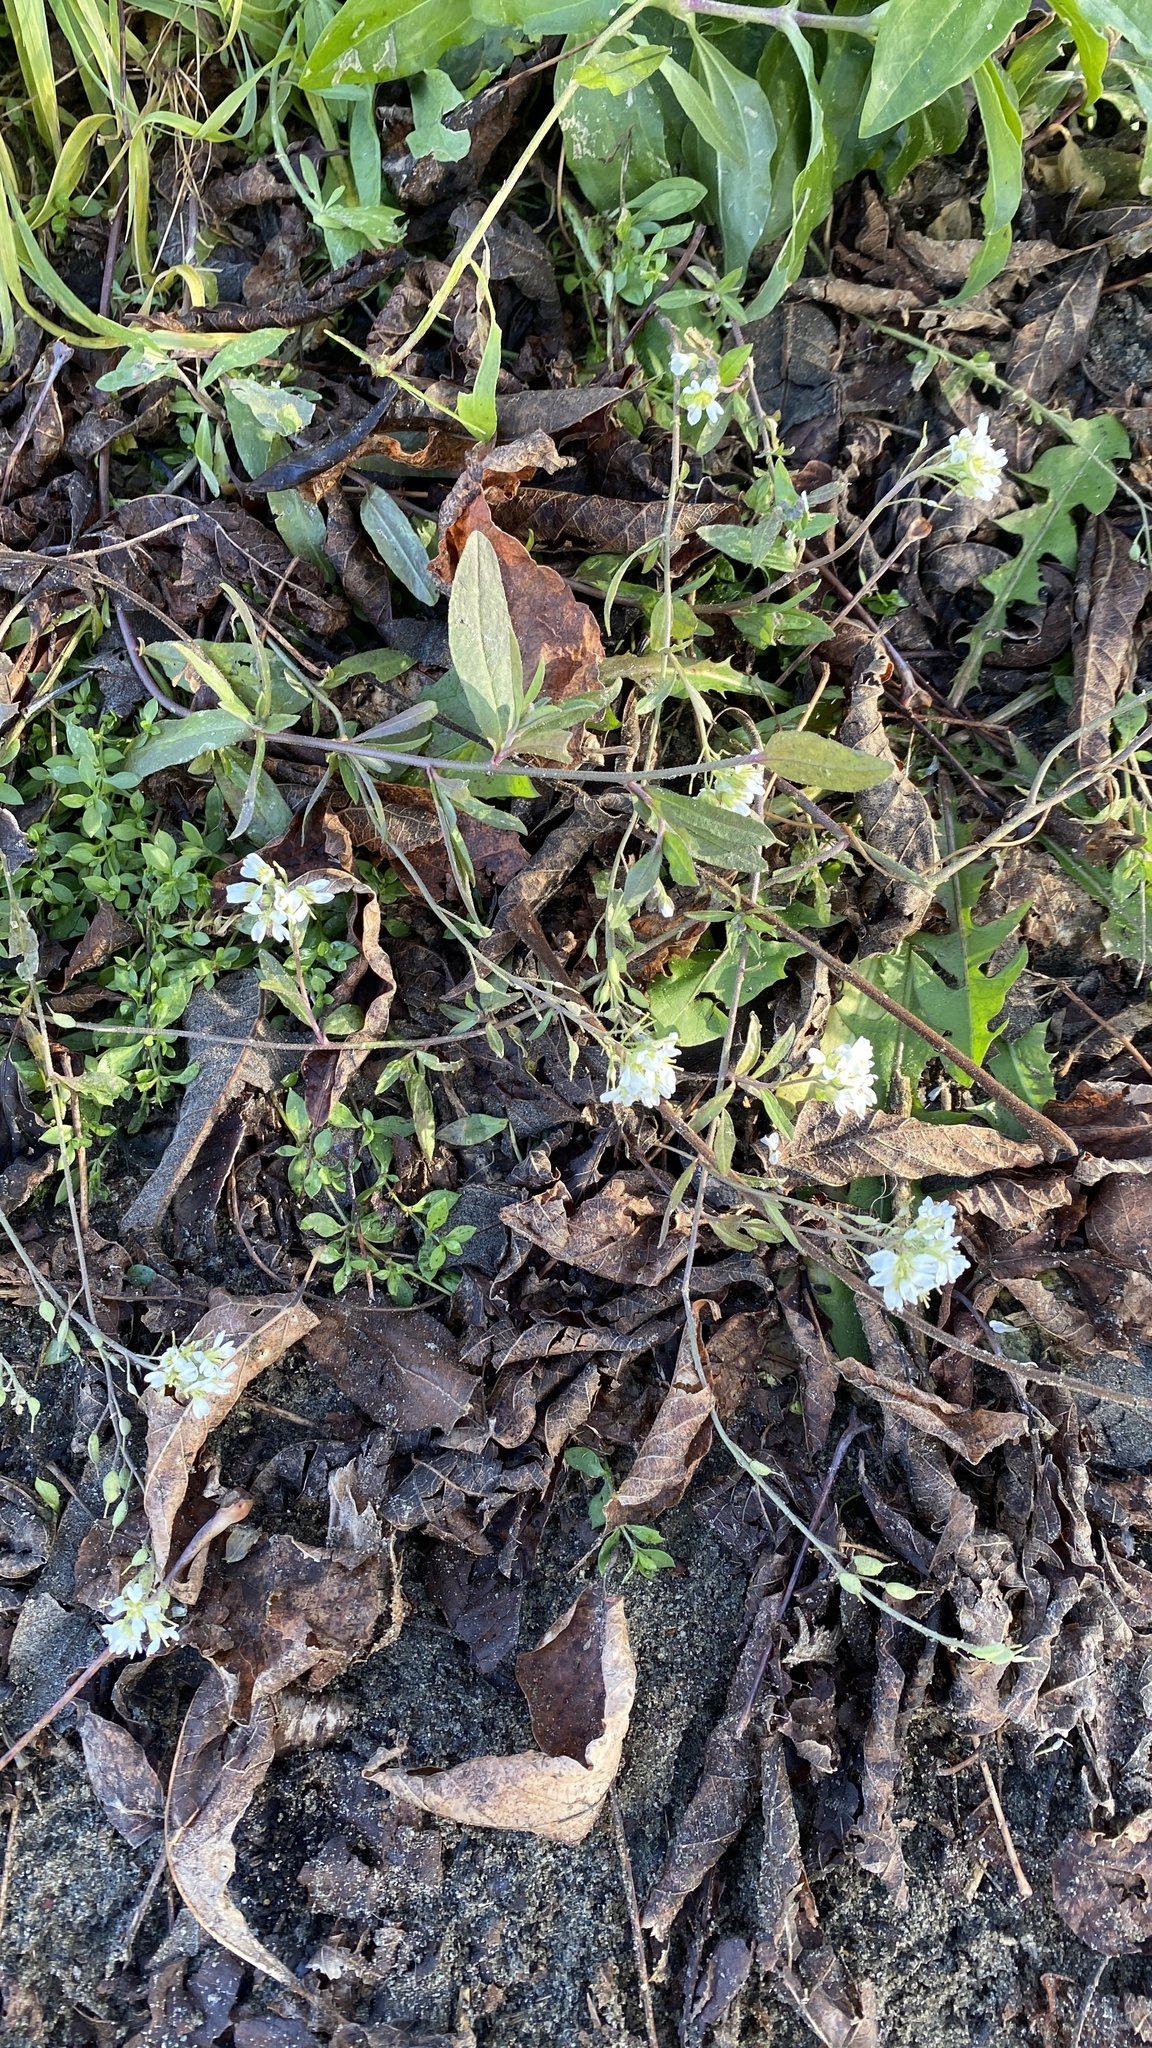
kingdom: Plantae
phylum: Tracheophyta
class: Magnoliopsida
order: Brassicales
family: Brassicaceae
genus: Berteroa
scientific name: Berteroa incana
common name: Hoary alison
